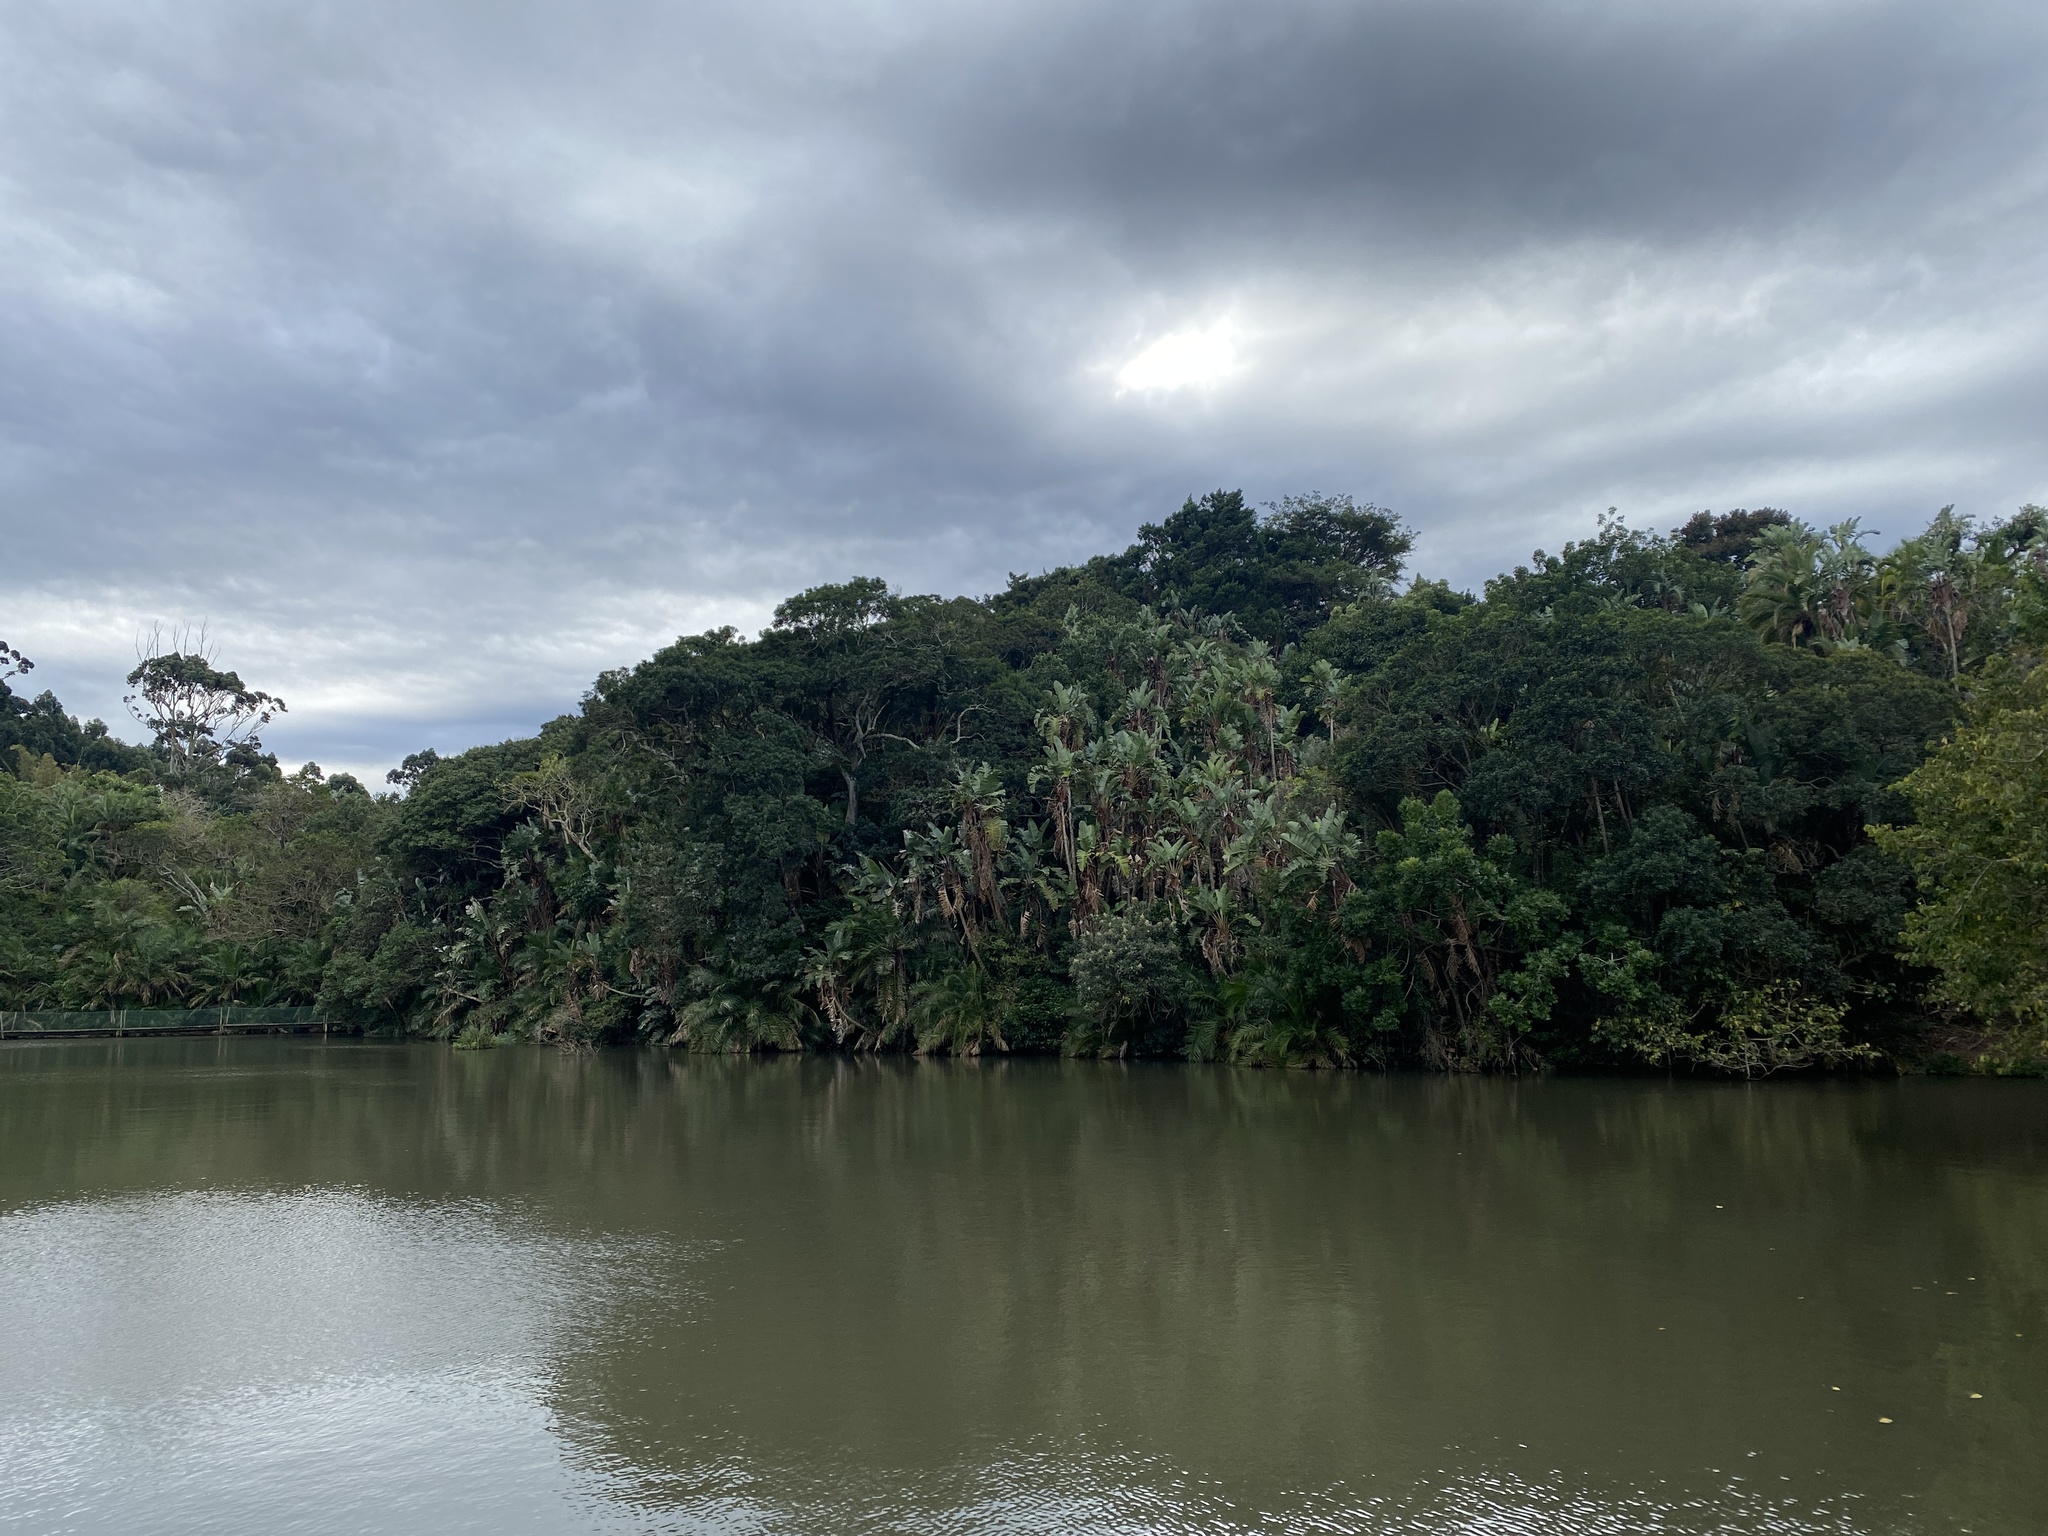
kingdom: Plantae
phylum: Tracheophyta
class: Liliopsida
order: Zingiberales
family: Strelitziaceae
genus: Strelitzia
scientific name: Strelitzia nicolai
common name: Bird-of-paradise tree
